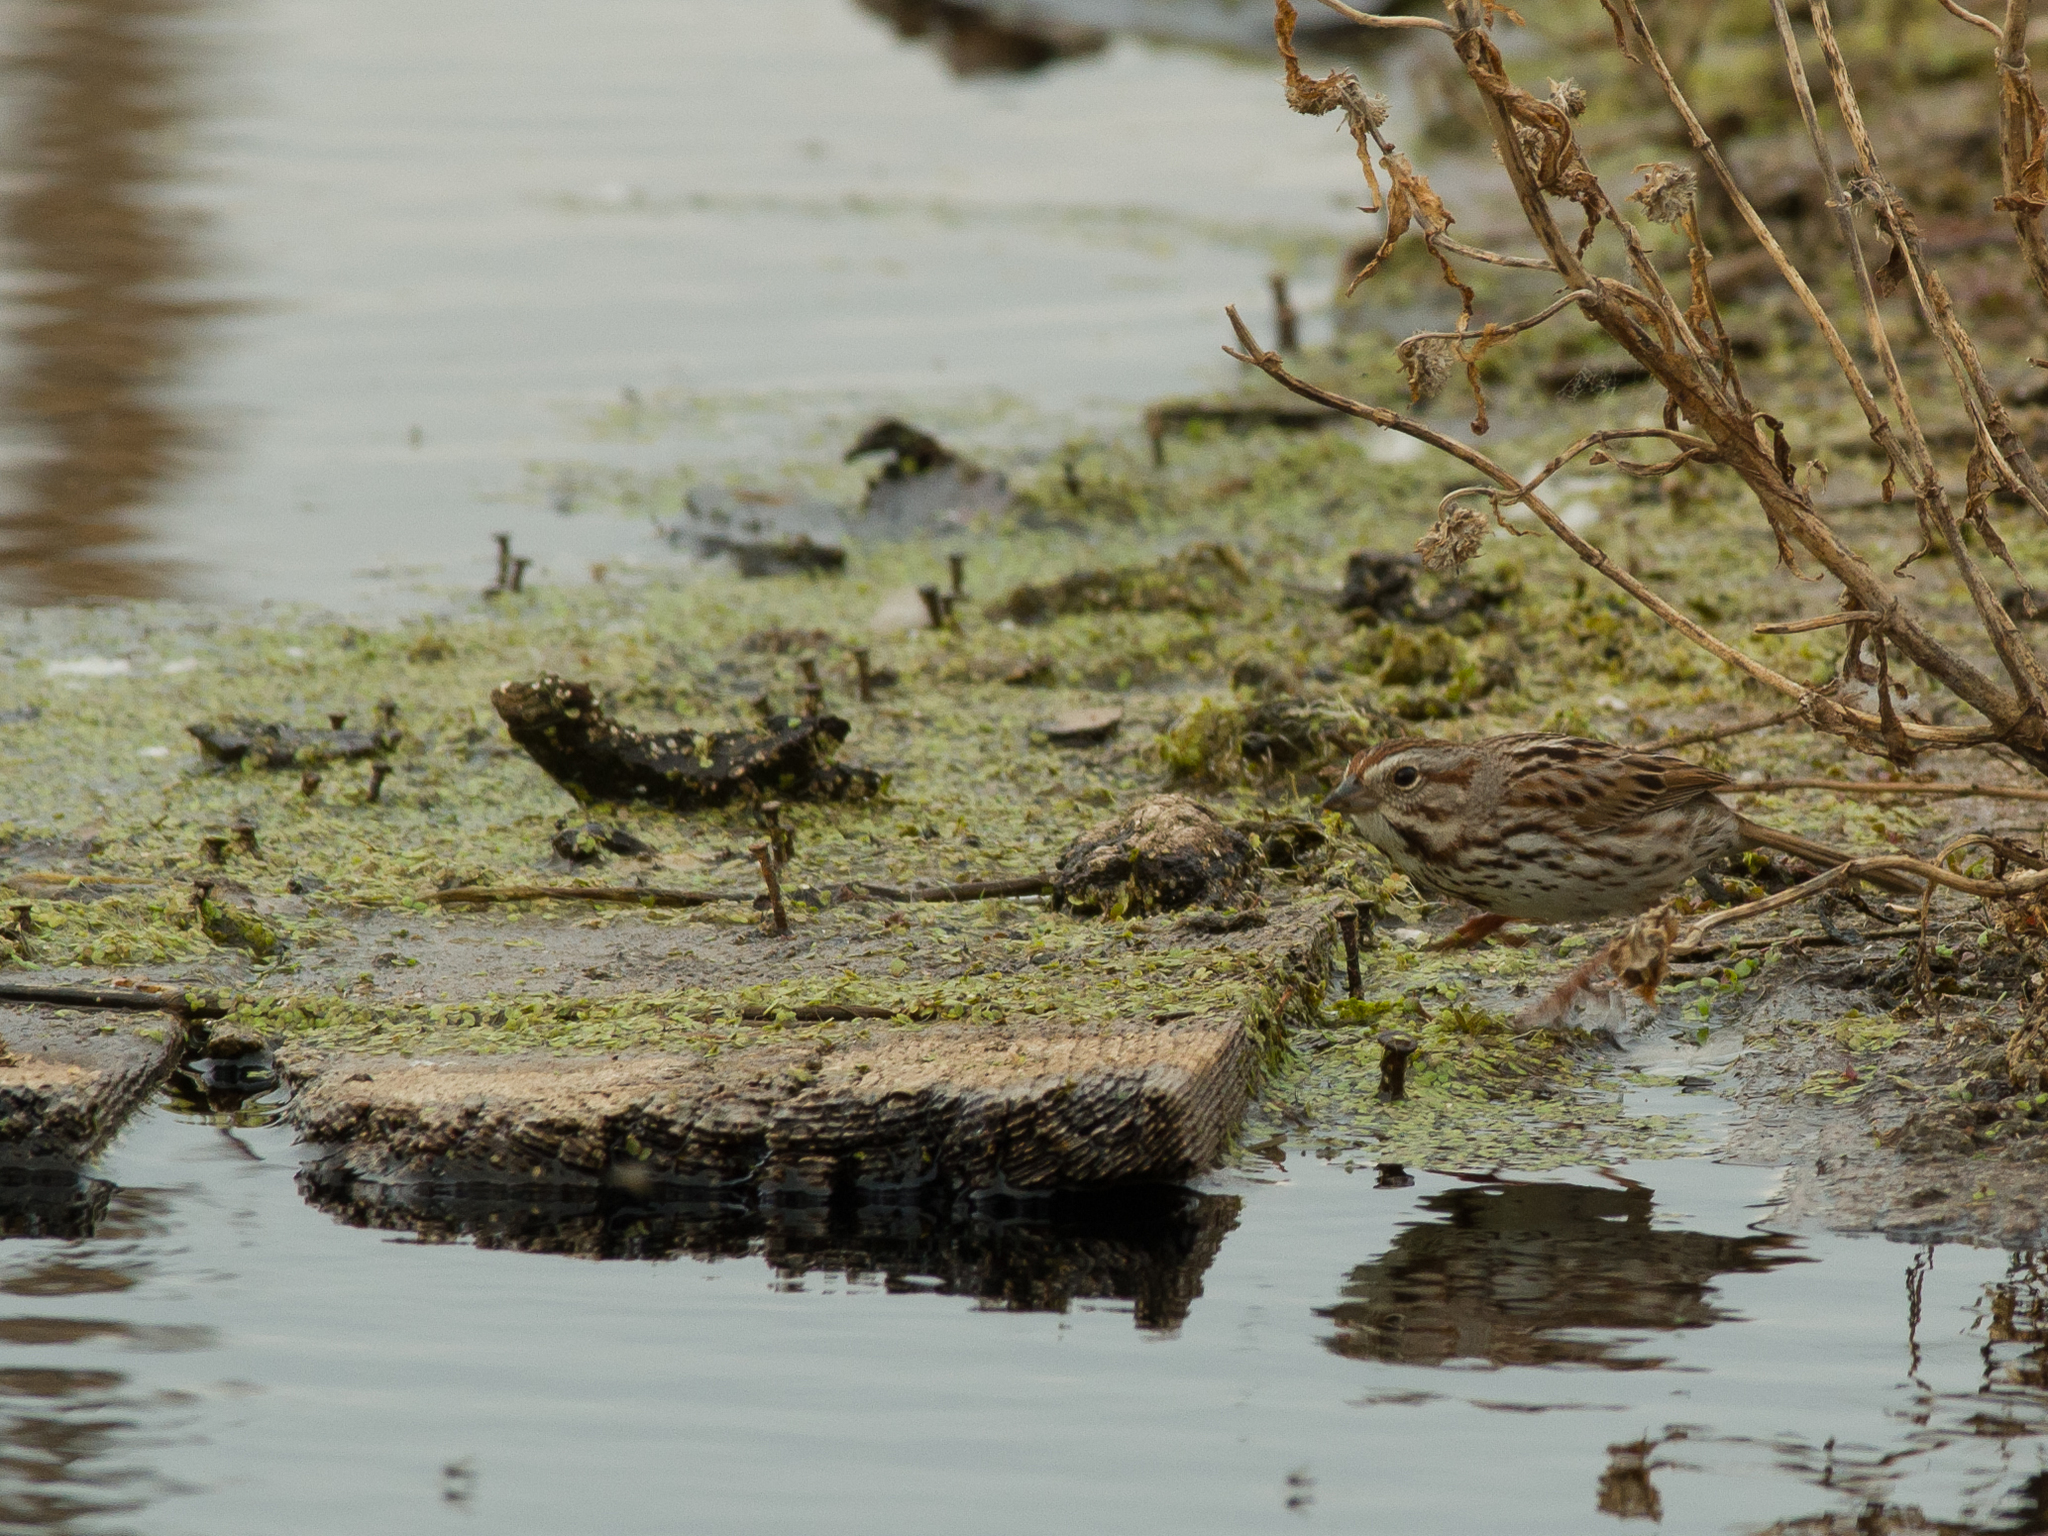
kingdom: Animalia
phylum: Chordata
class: Aves
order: Passeriformes
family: Passerellidae
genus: Melospiza
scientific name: Melospiza melodia
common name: Song sparrow
